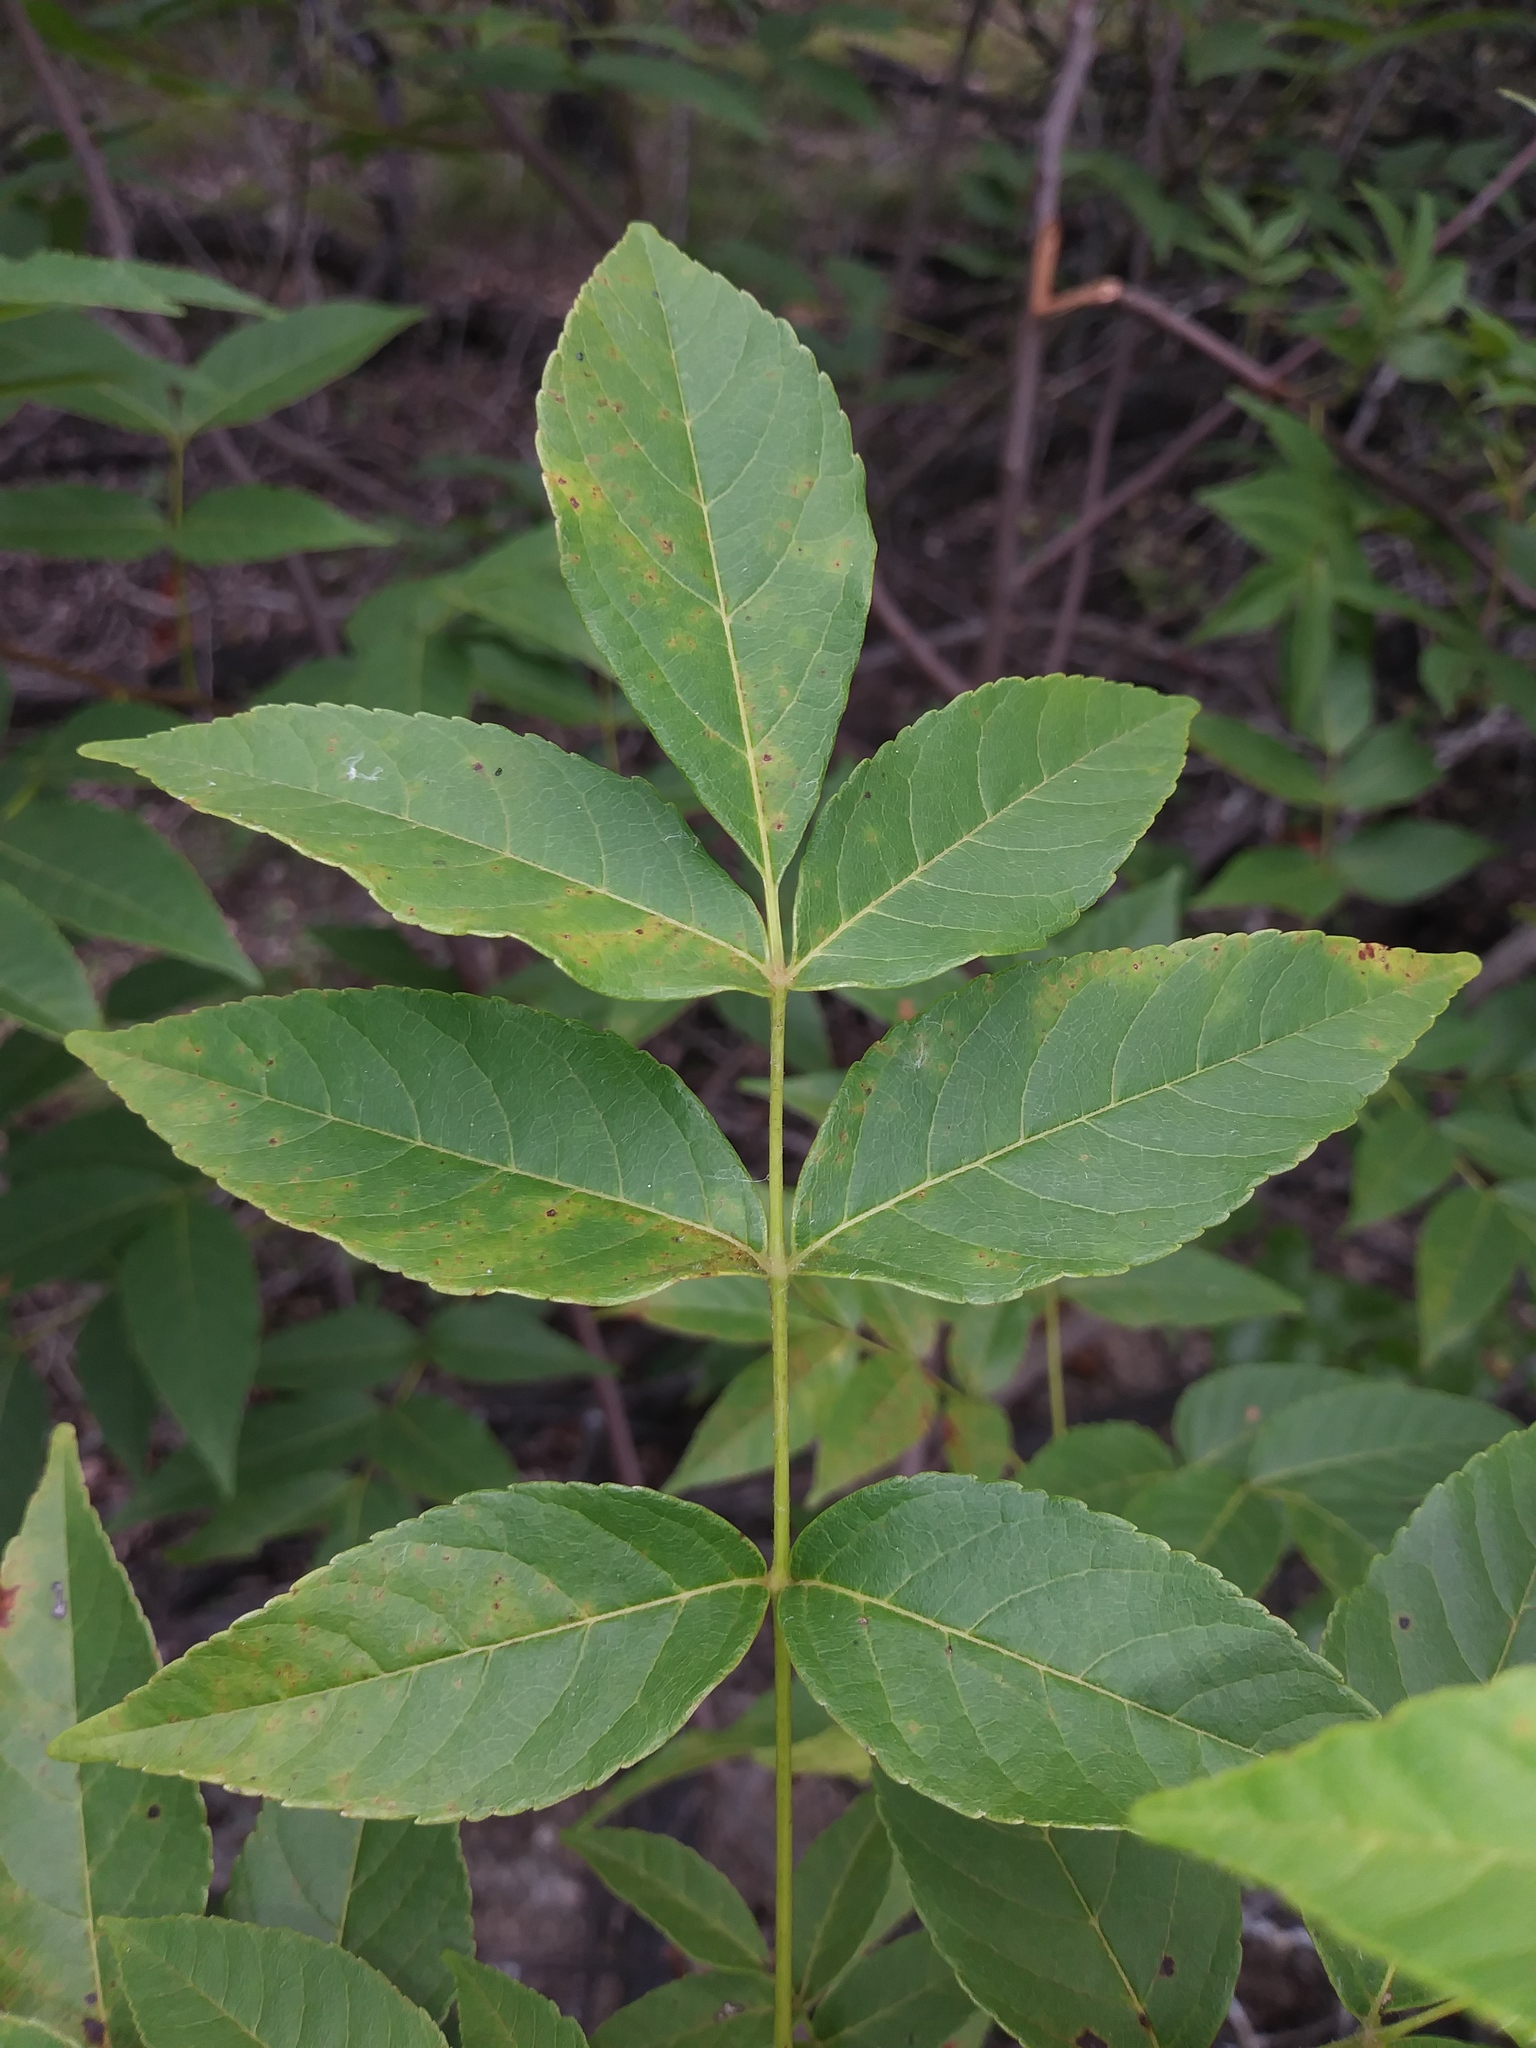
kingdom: Plantae
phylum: Tracheophyta
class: Magnoliopsida
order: Sapindales
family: Sapindaceae
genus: Ungnadia
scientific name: Ungnadia speciosa
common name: Texas-buckeye
